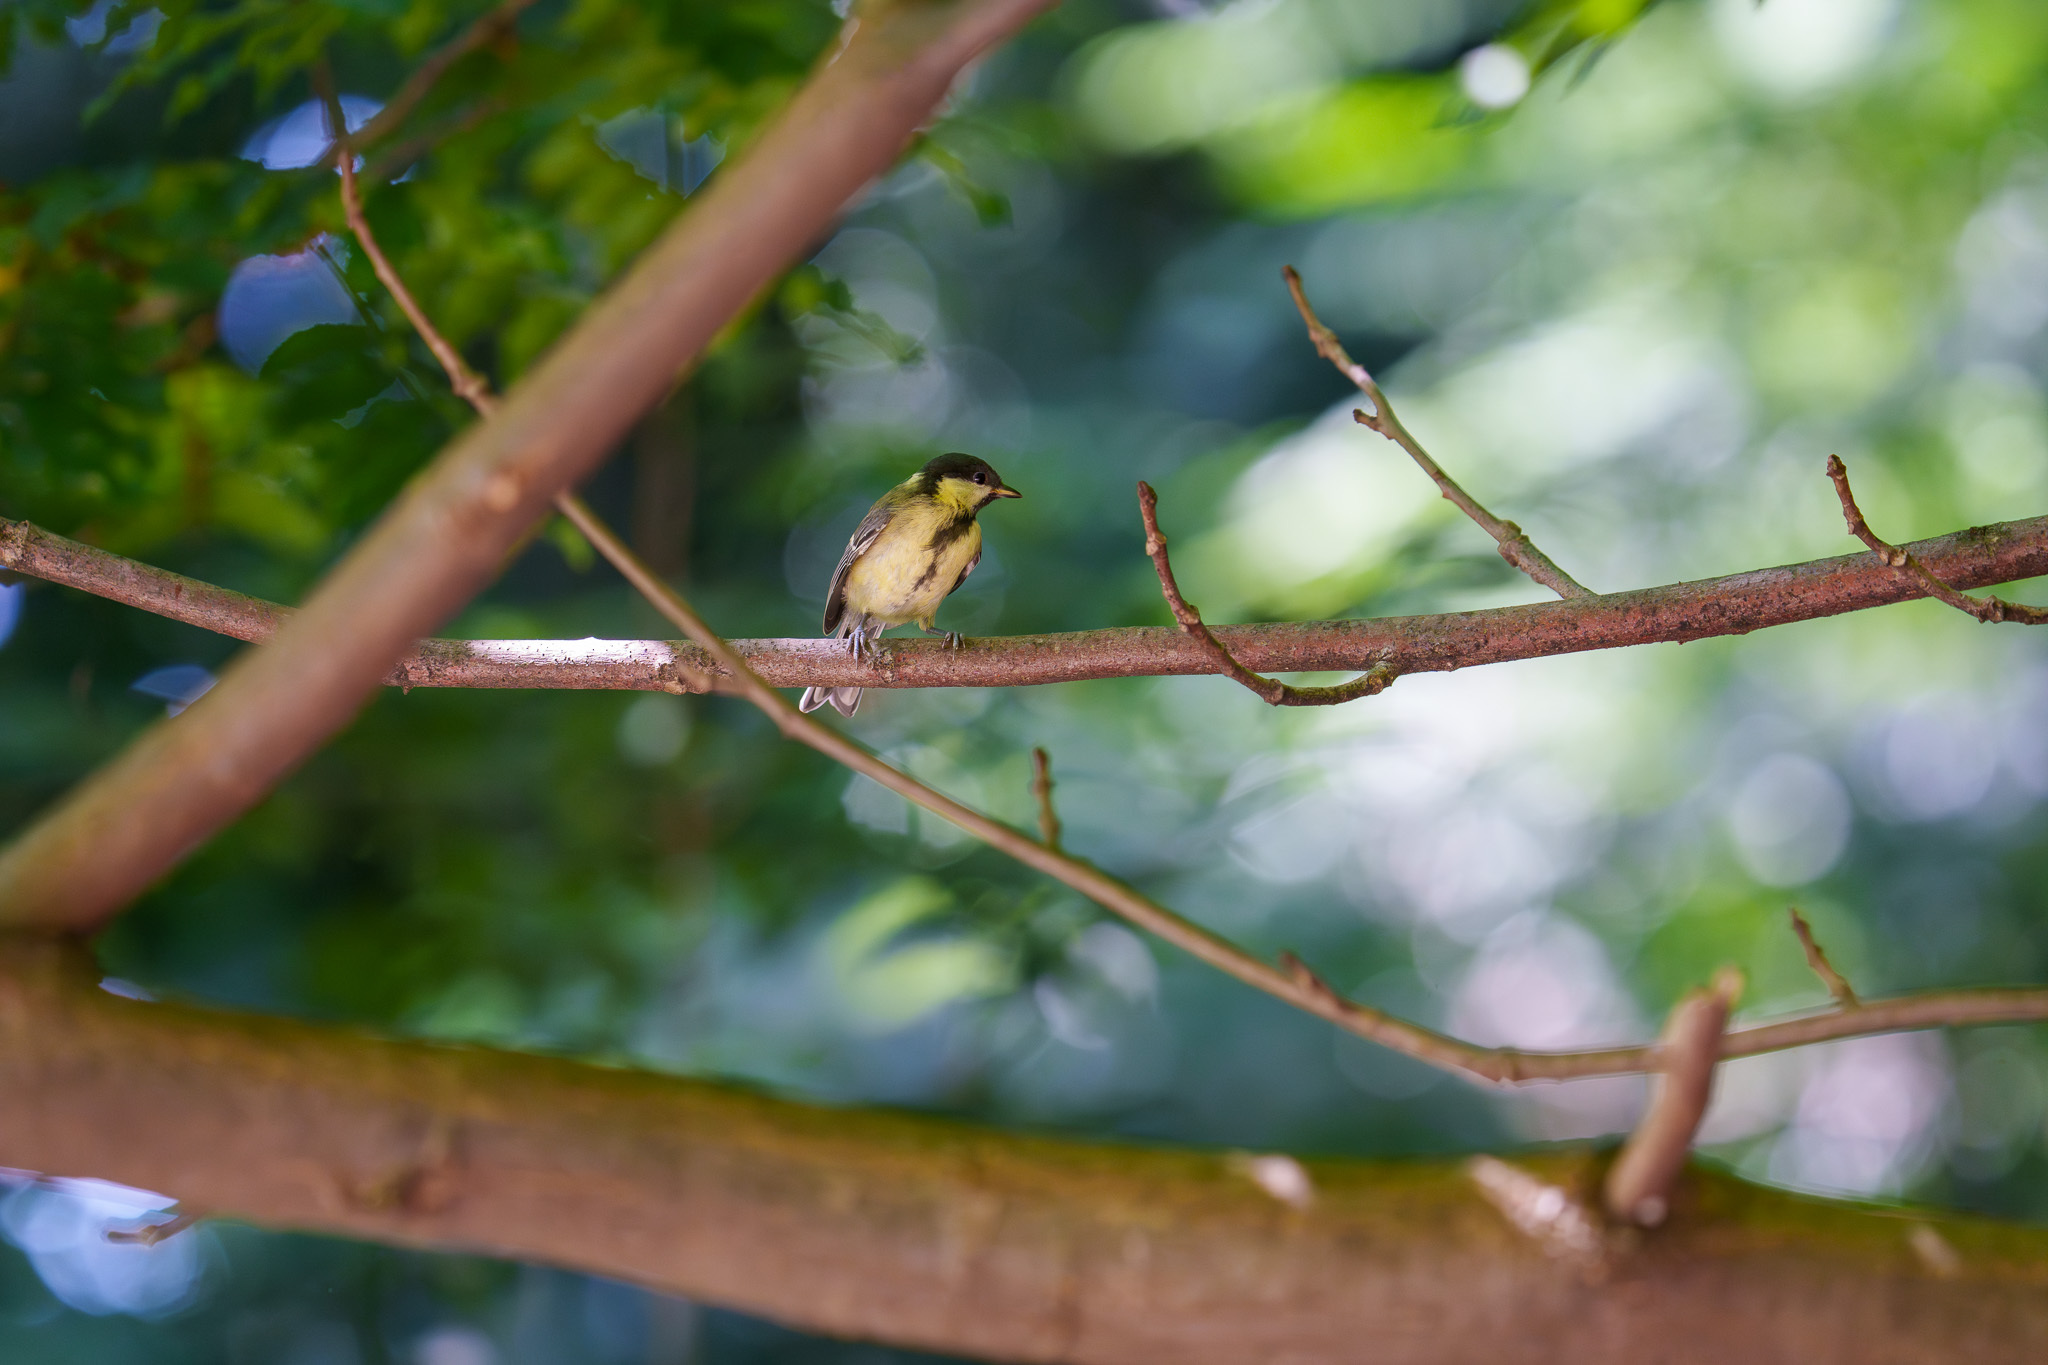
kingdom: Animalia
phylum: Chordata
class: Aves
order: Passeriformes
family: Paridae
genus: Parus
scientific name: Parus major
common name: Great tit
